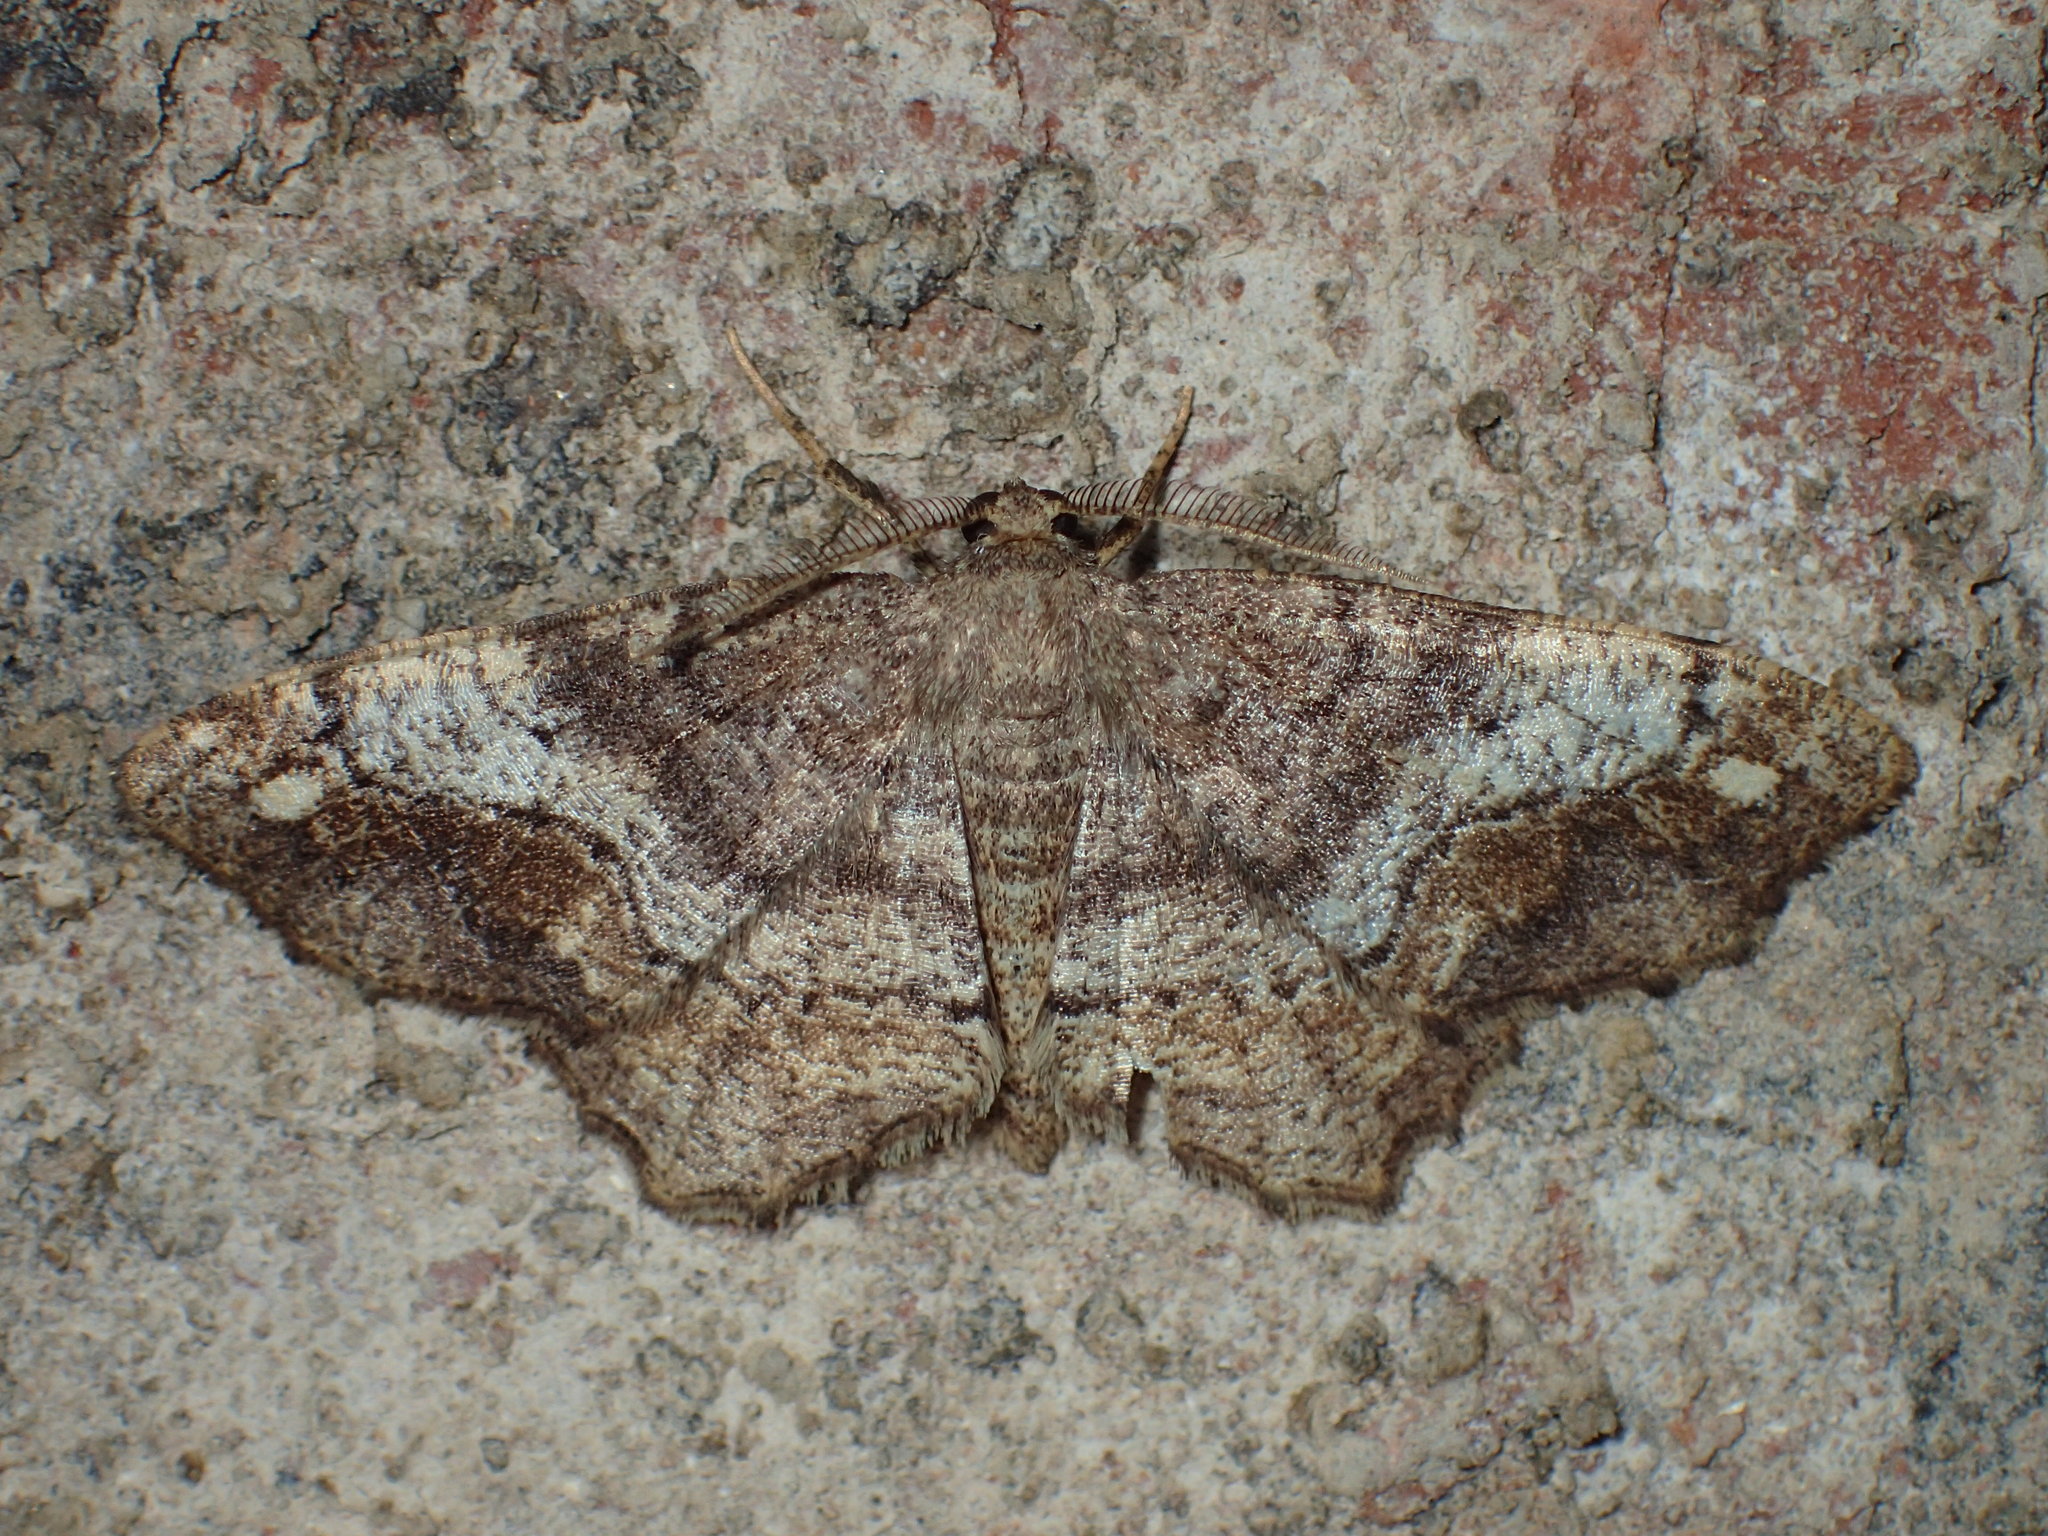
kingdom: Animalia
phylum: Arthropoda
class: Insecta
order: Lepidoptera
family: Geometridae
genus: Hypagyrtis
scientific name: Hypagyrtis unipunctata
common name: One-spotted variant
